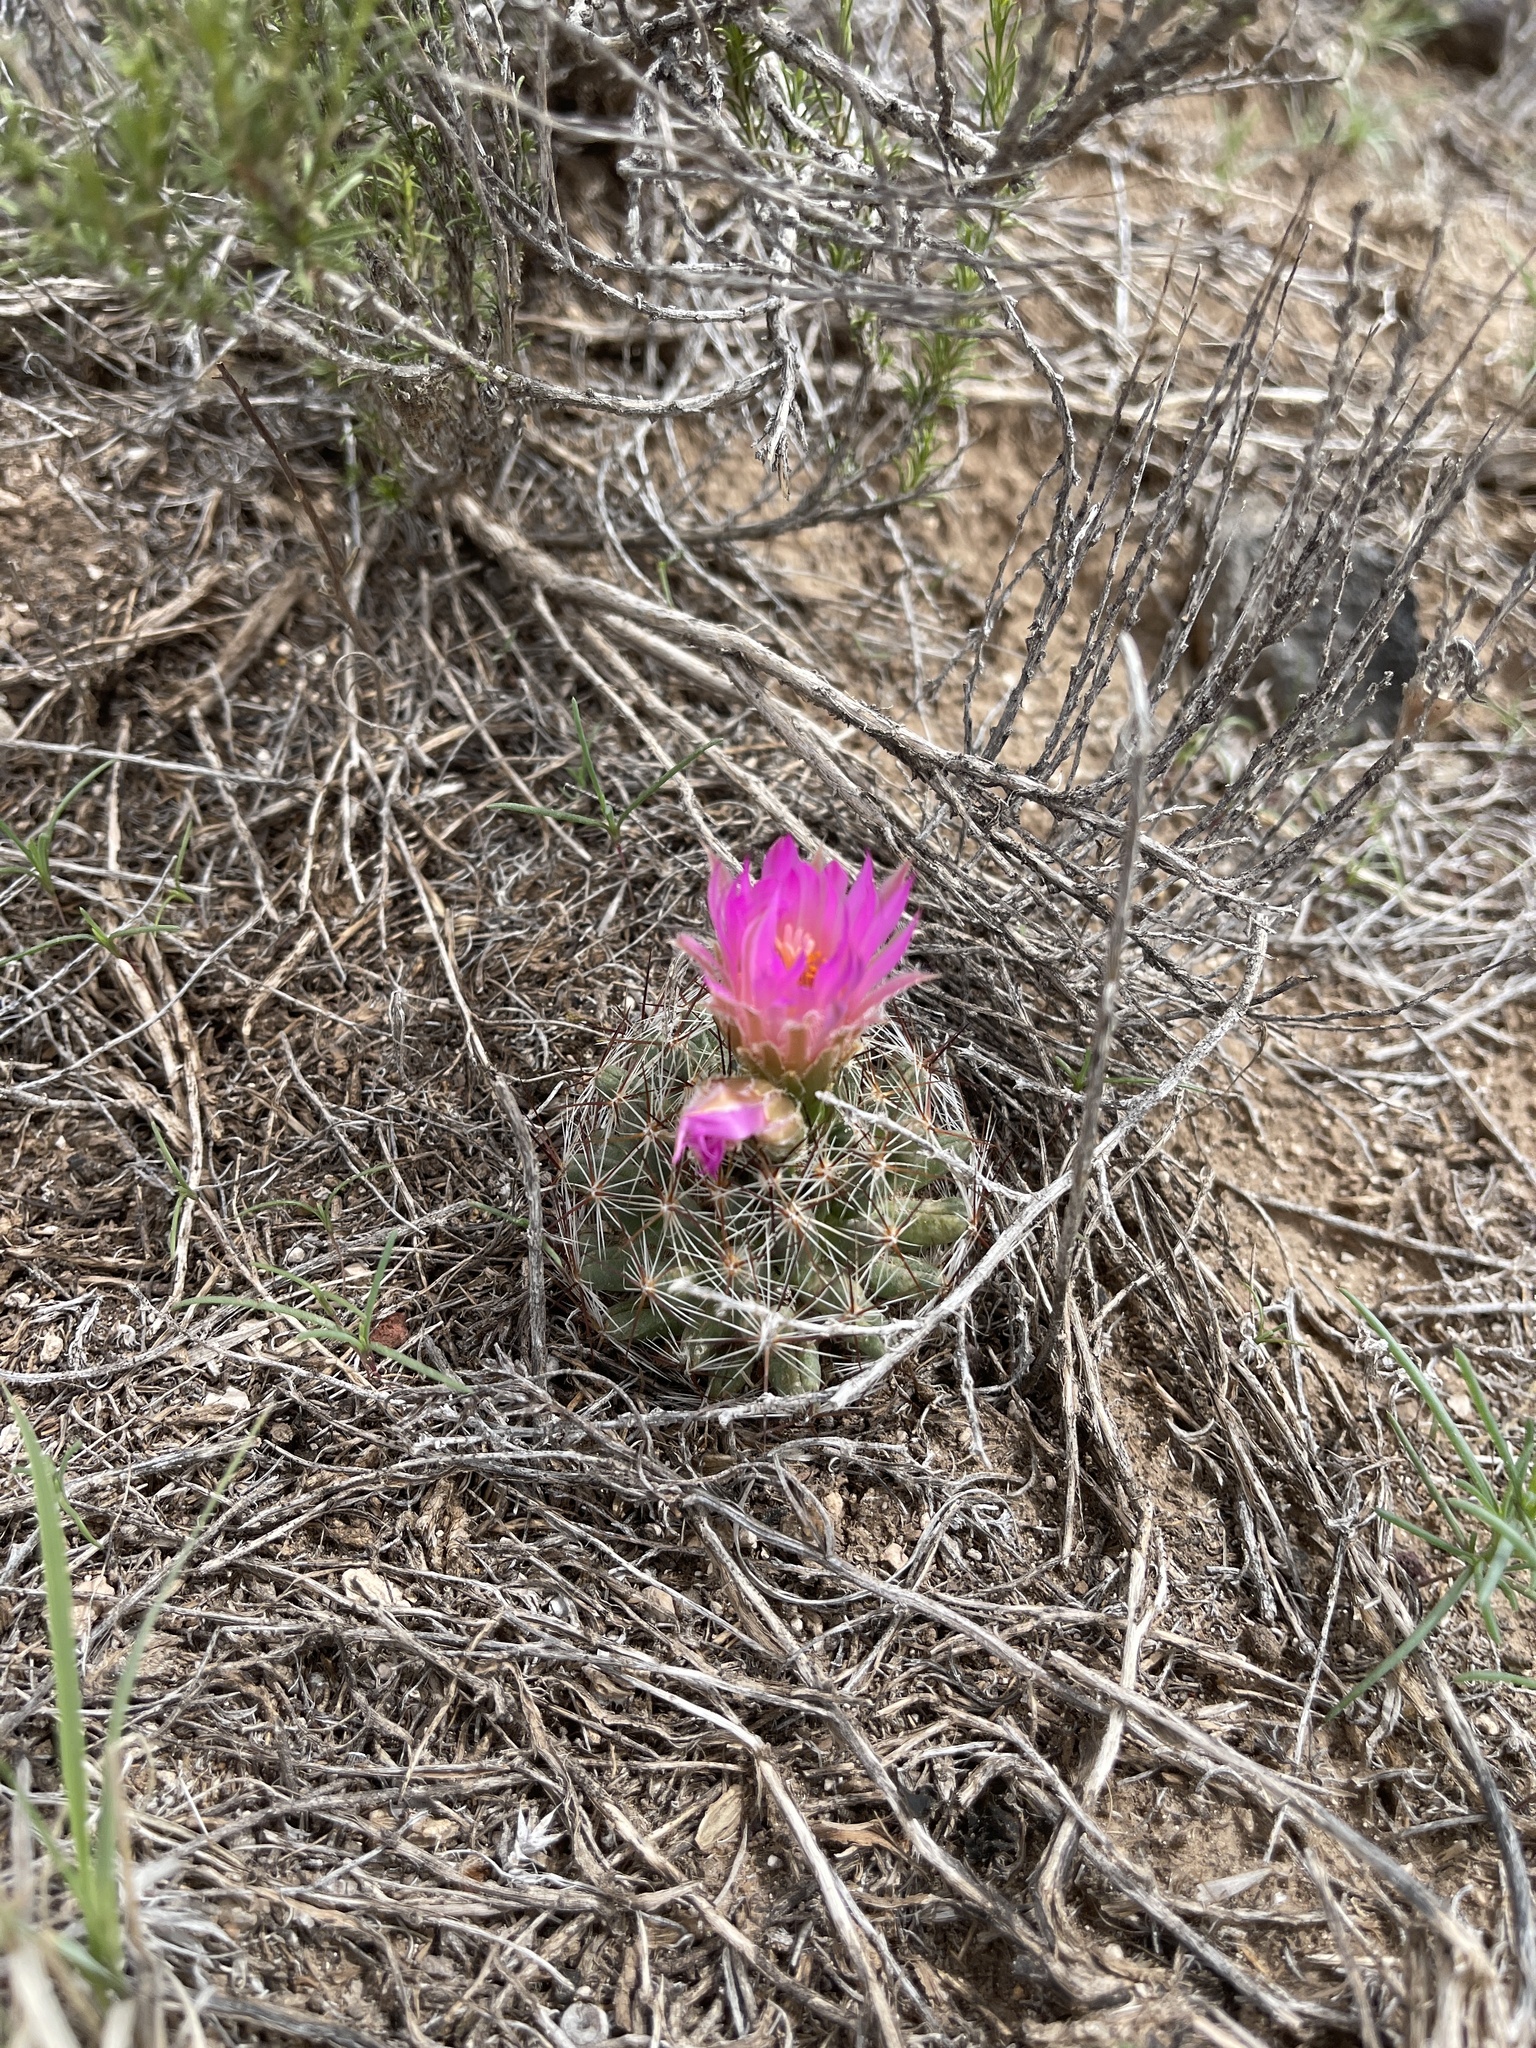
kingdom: Plantae
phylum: Tracheophyta
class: Magnoliopsida
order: Caryophyllales
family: Cactaceae
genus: Pelecyphora
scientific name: Pelecyphora vivipara
